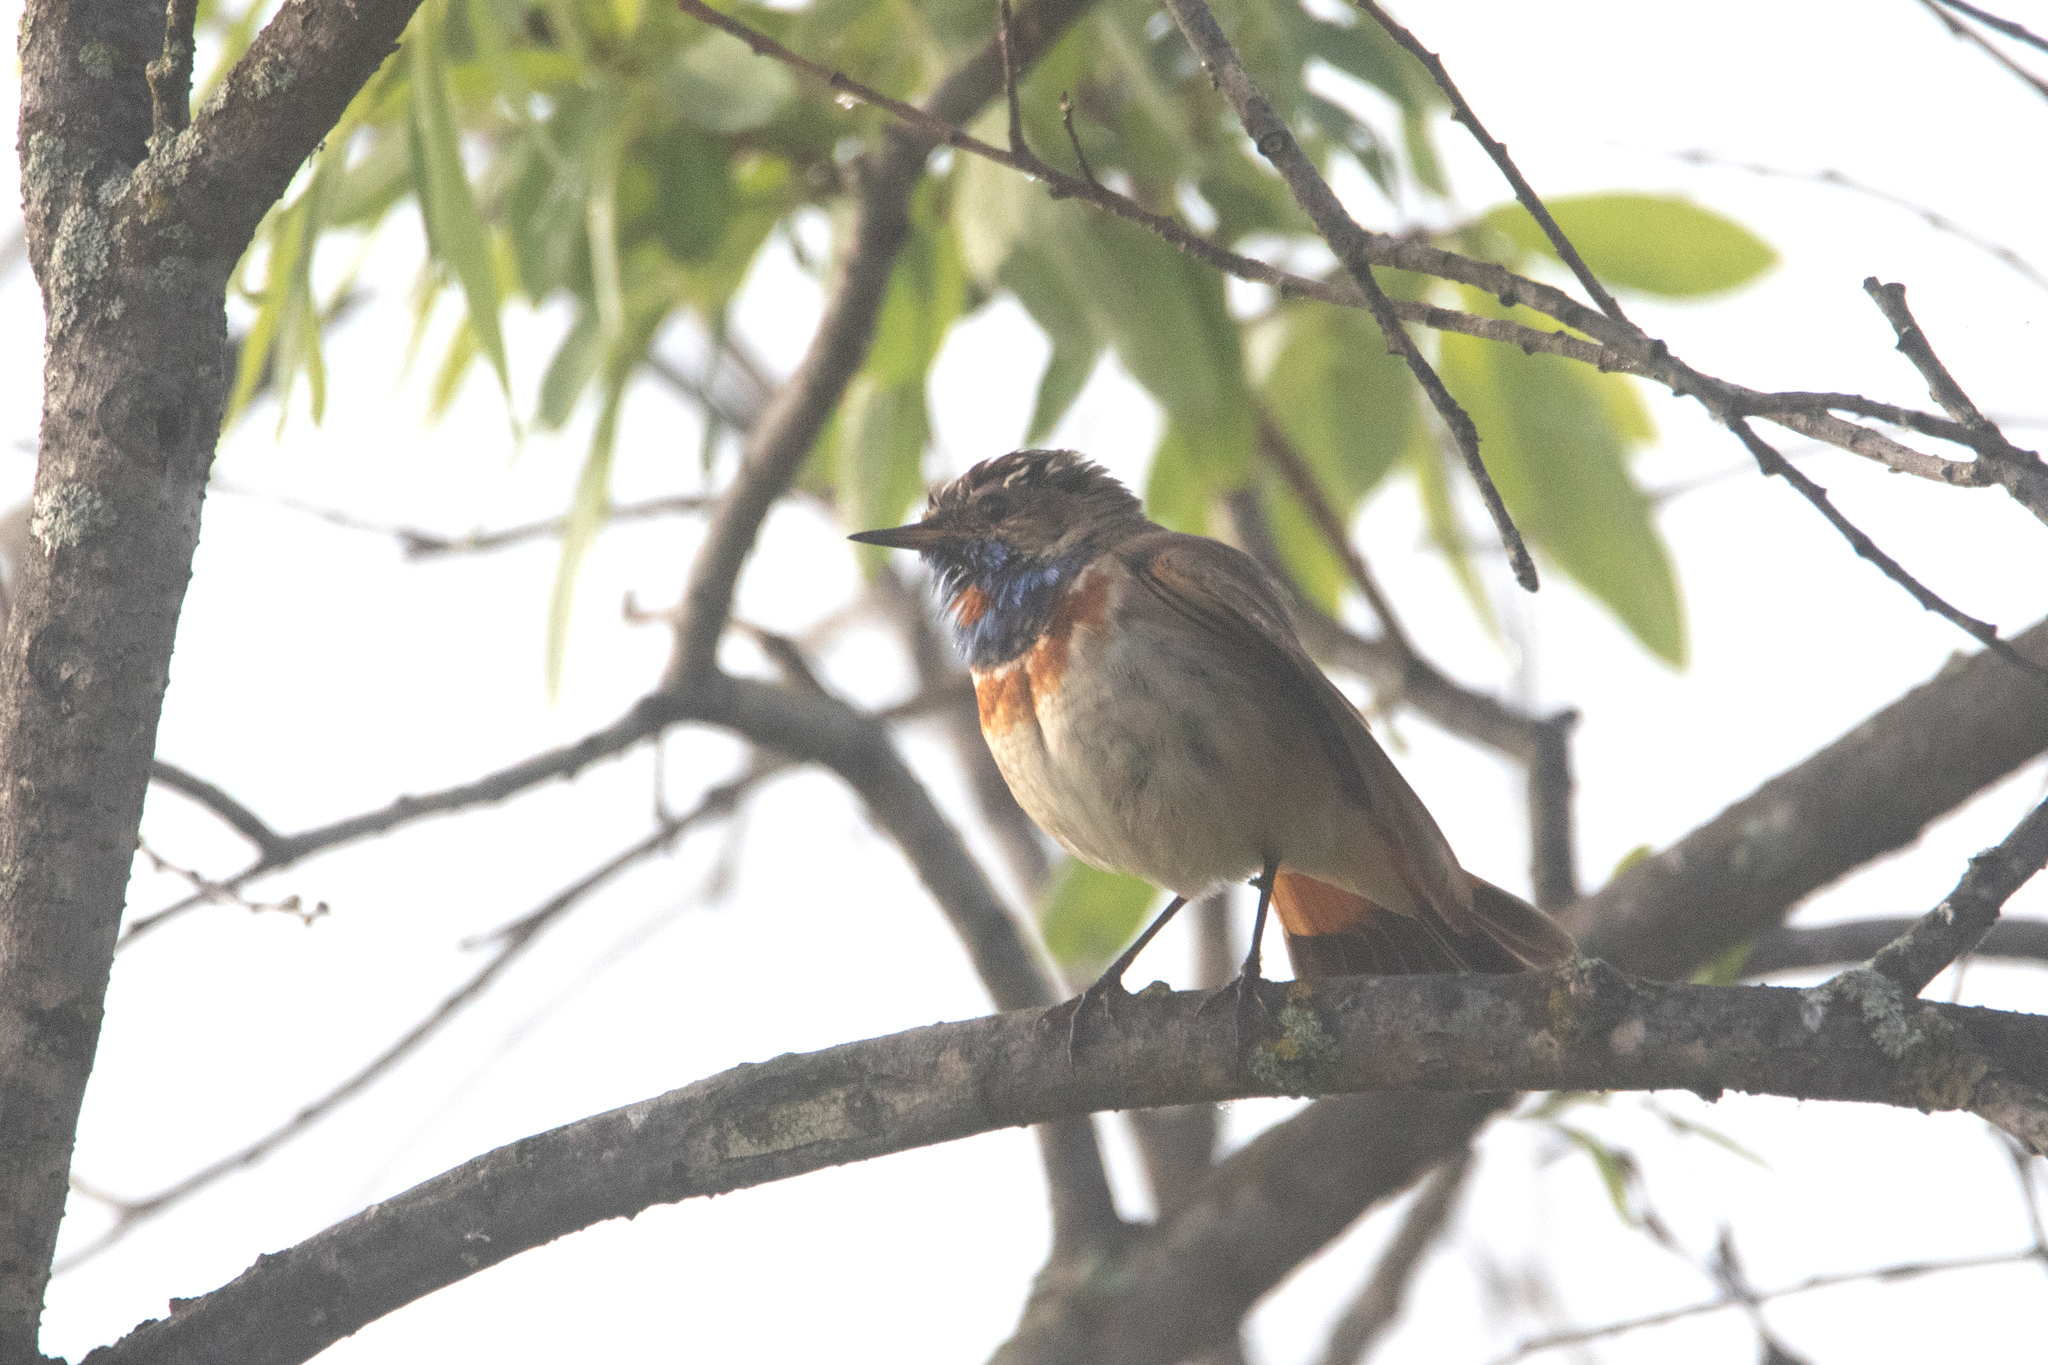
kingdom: Animalia
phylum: Chordata
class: Aves
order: Passeriformes
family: Muscicapidae
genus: Luscinia
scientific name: Luscinia svecica
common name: Bluethroat
